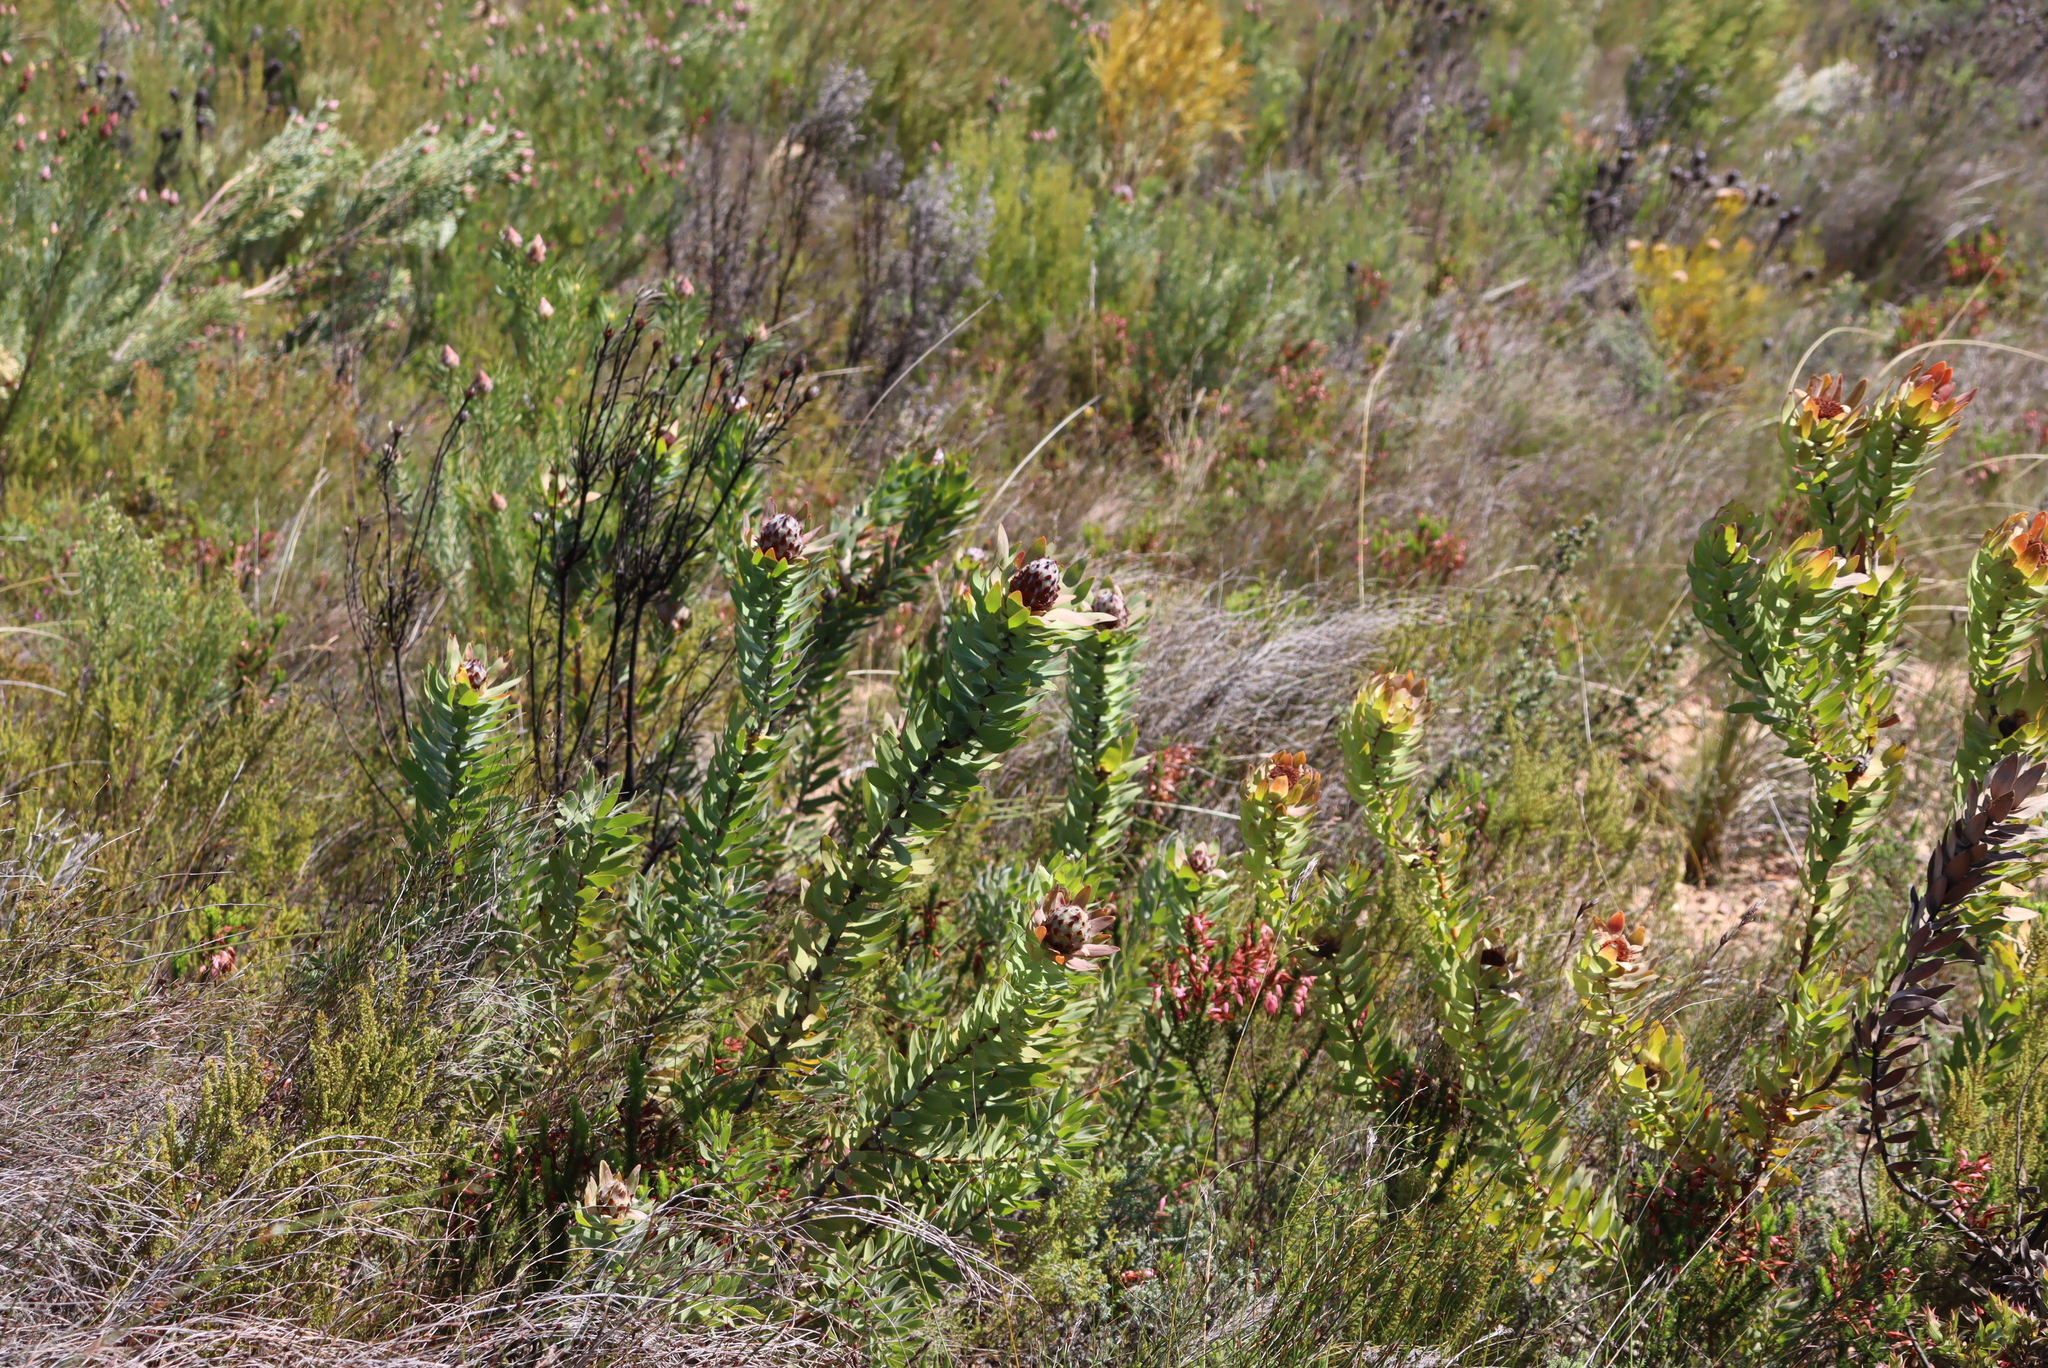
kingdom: Plantae
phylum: Tracheophyta
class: Magnoliopsida
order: Proteales
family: Proteaceae
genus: Leucadendron
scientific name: Leucadendron daphnoides
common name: Du toit's kloof conebush
